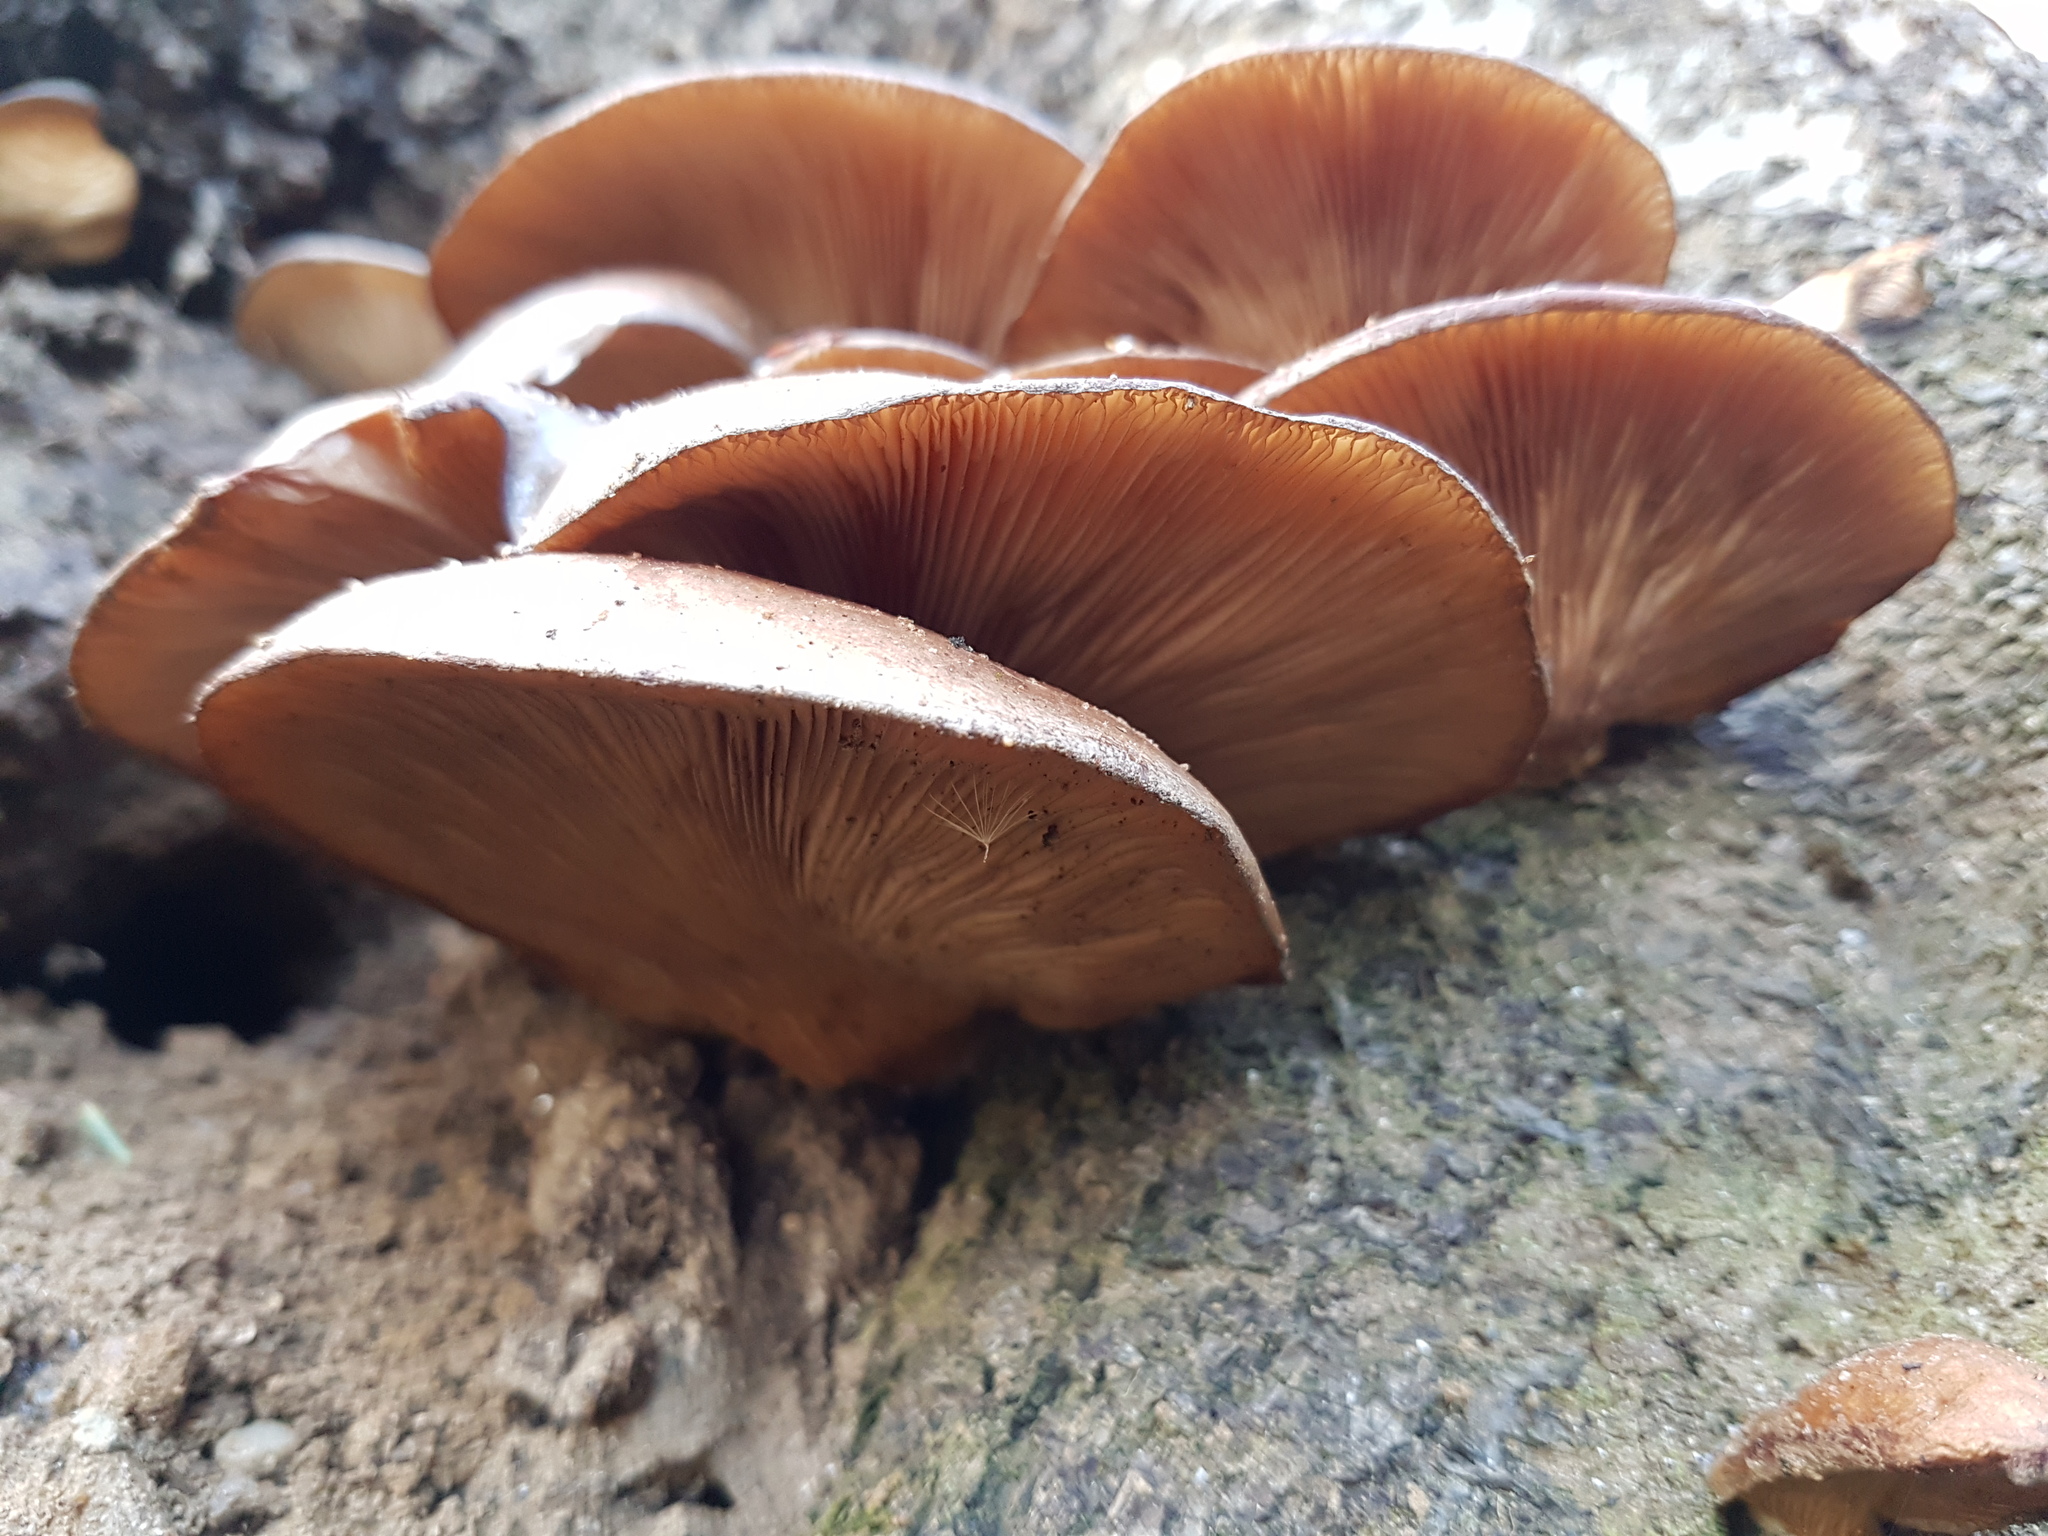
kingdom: Fungi
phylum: Basidiomycota
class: Agaricomycetes
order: Agaricales
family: Sarcomyxaceae
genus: Sarcomyxa
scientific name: Sarcomyxa serotina
